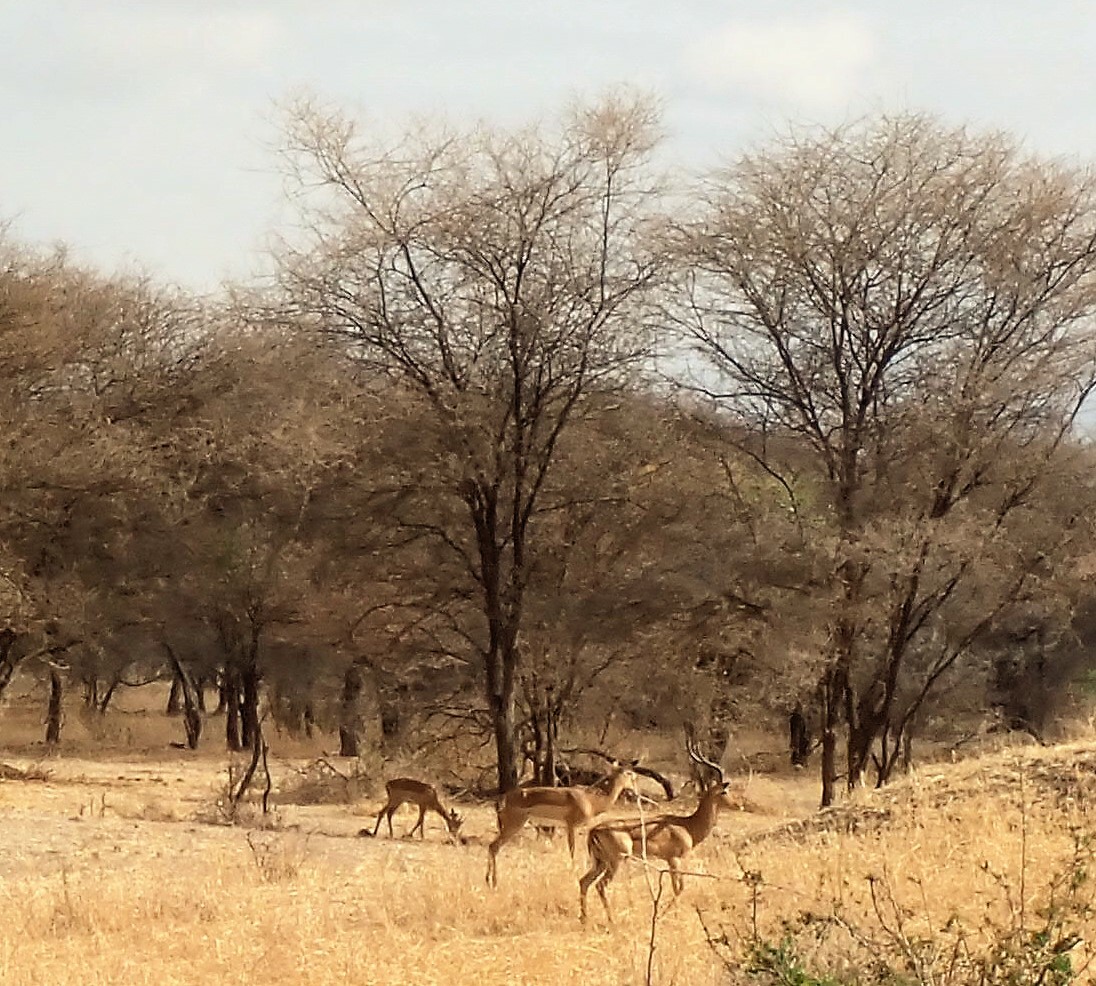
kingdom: Animalia
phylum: Chordata
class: Mammalia
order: Artiodactyla
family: Bovidae
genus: Aepyceros
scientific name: Aepyceros melampus
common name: Impala
